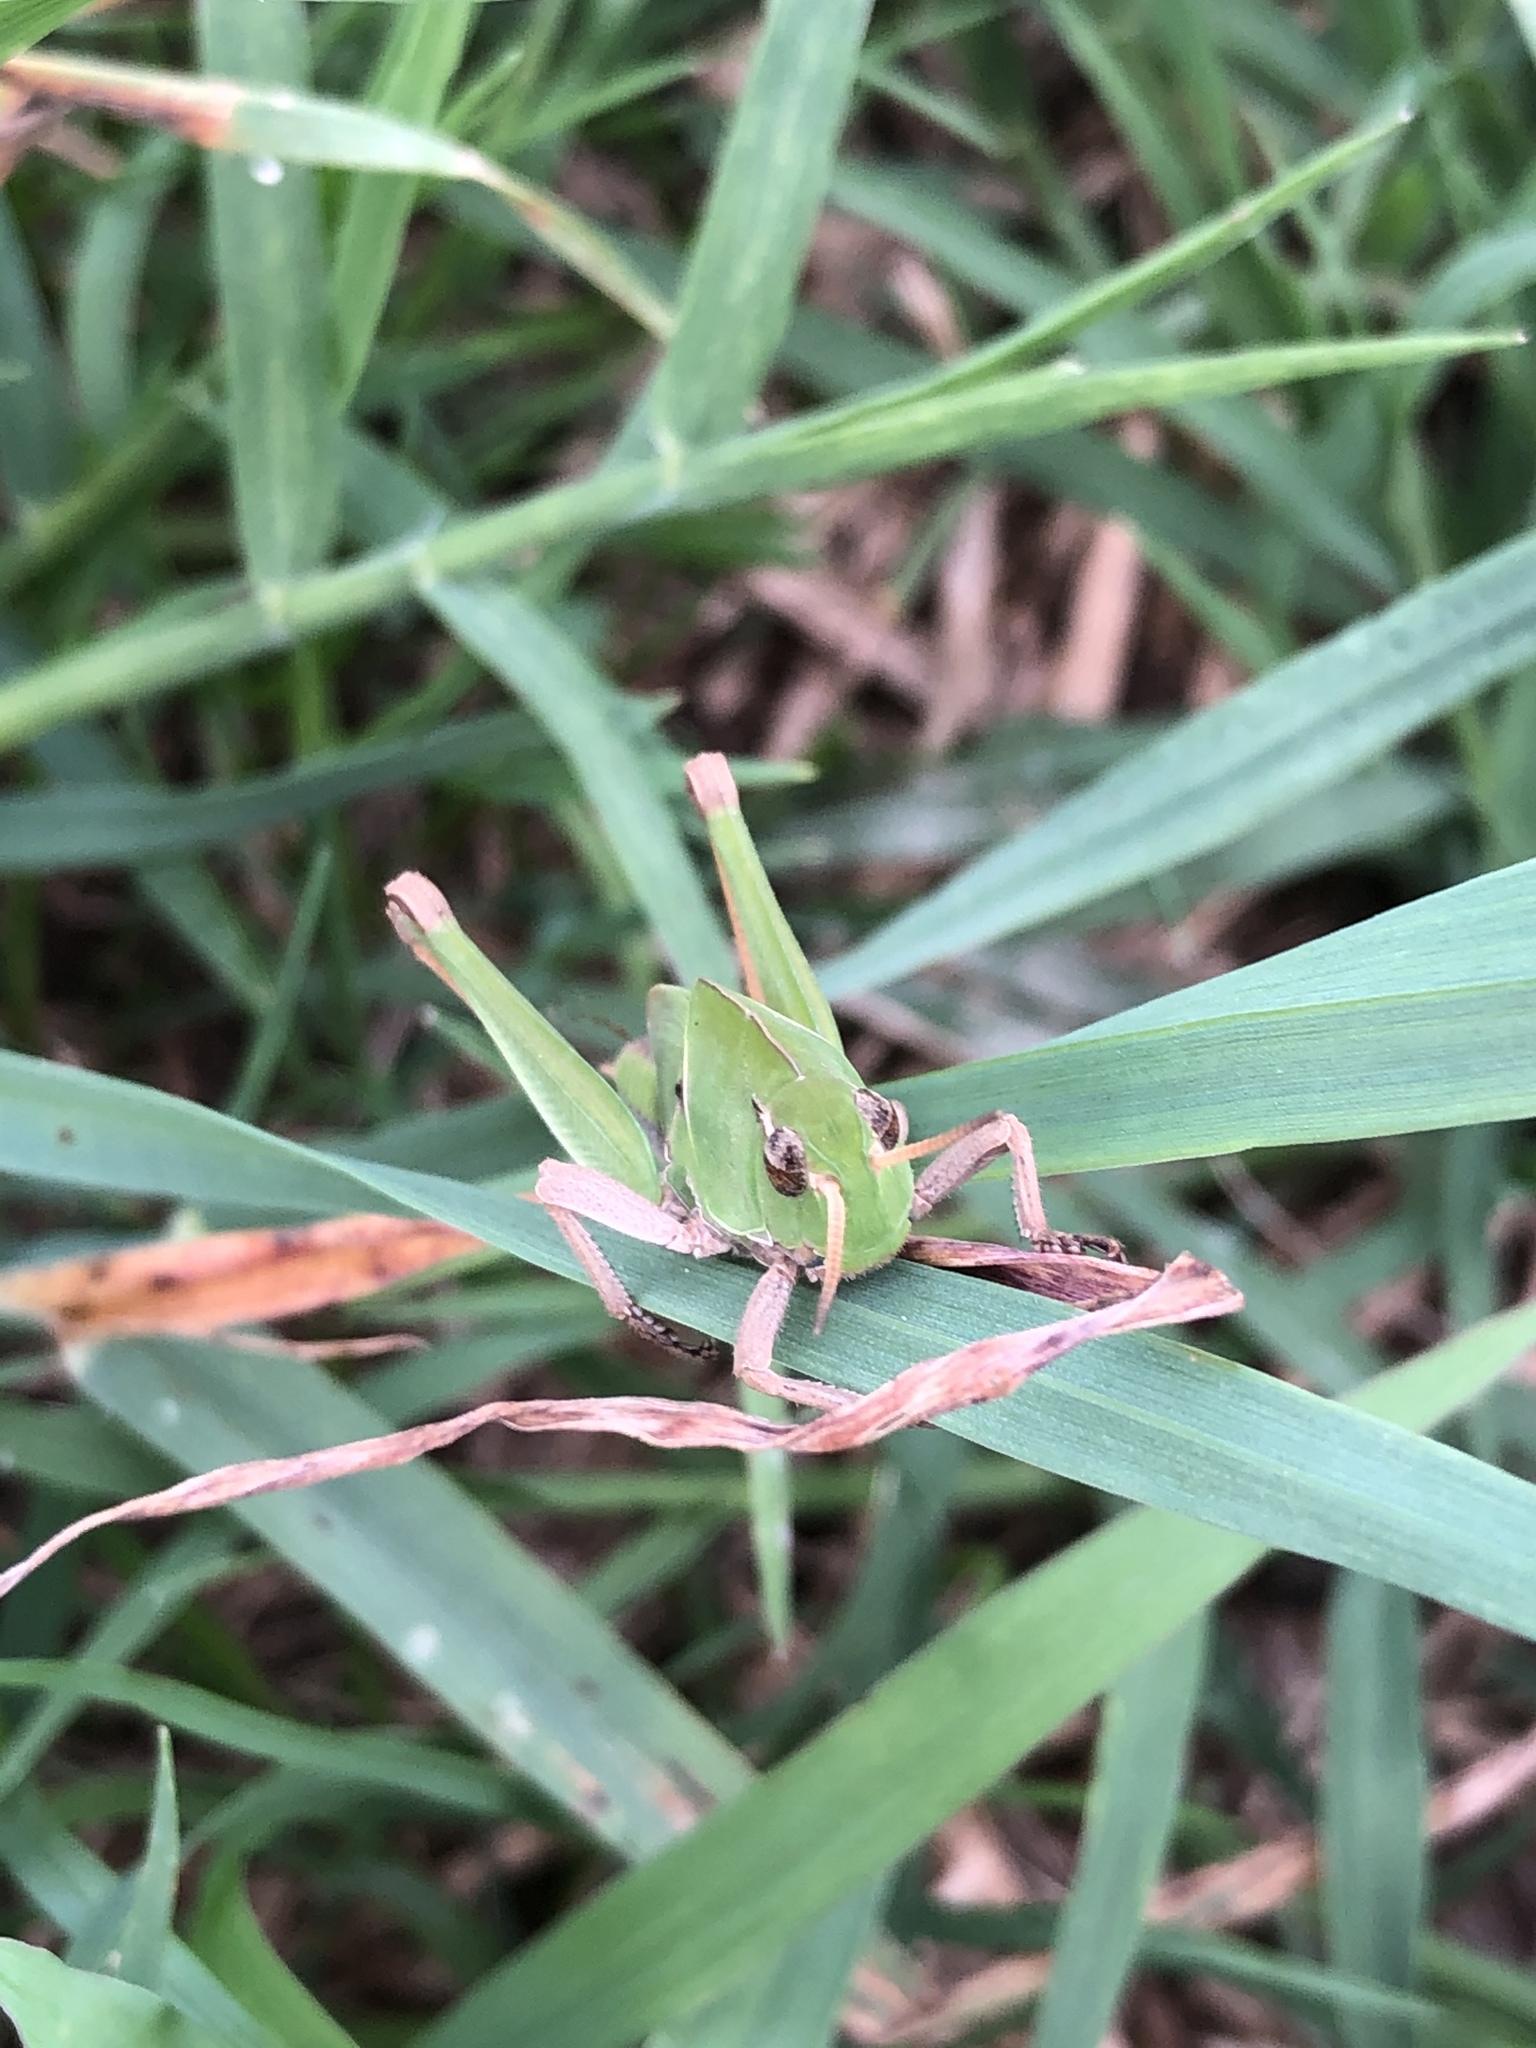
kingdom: Animalia
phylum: Arthropoda
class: Insecta
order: Orthoptera
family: Acrididae
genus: Locusta
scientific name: Locusta migratoria
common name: Migratory locust
